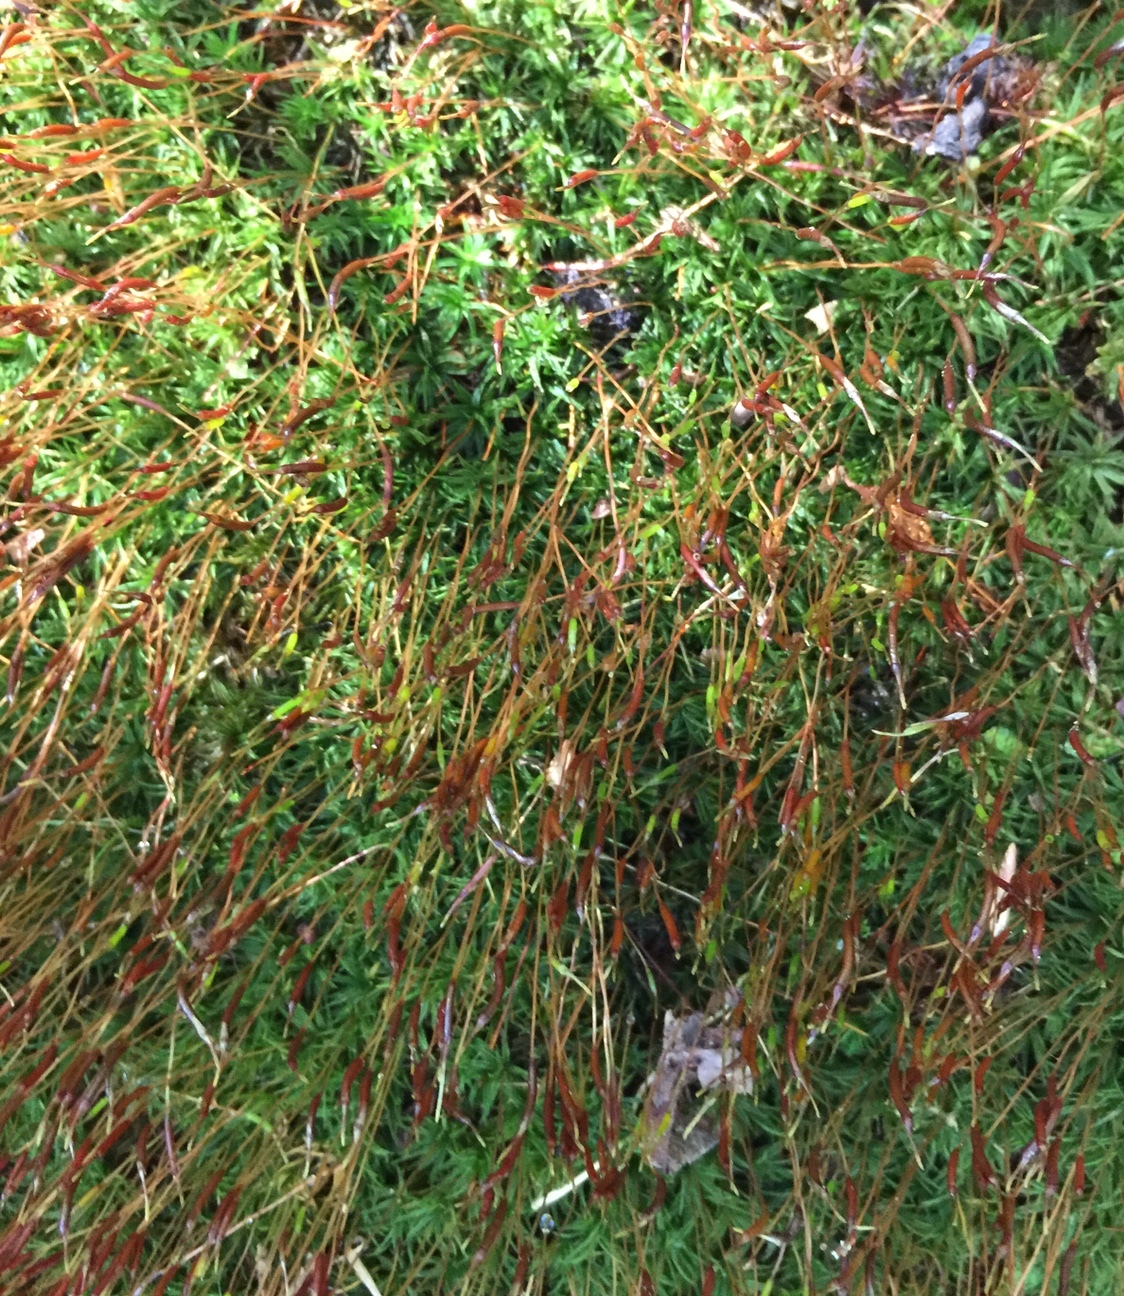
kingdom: Plantae
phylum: Bryophyta
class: Polytrichopsida
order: Polytrichales
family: Polytrichaceae
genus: Atrichum
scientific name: Atrichum angustatum
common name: Lesser smoothcap
